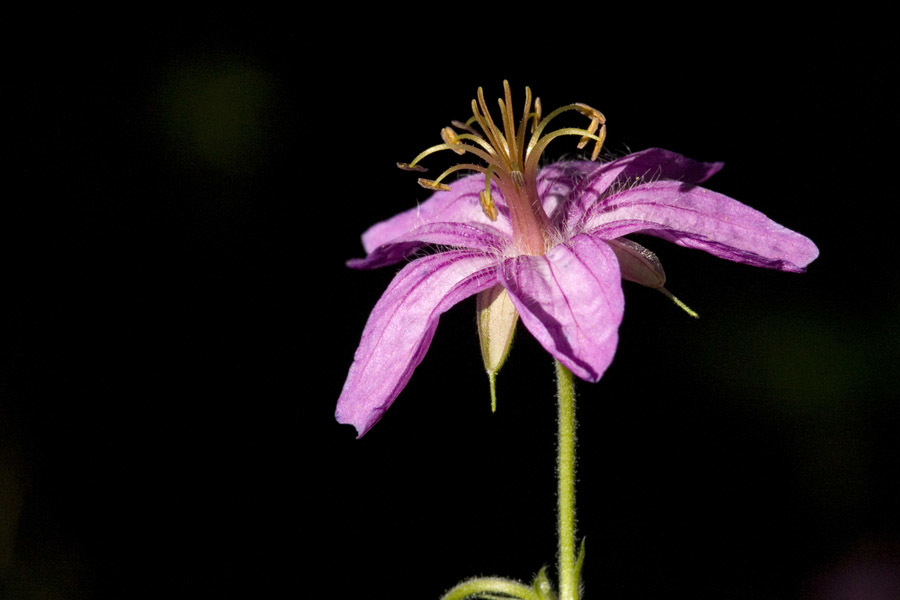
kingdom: Plantae
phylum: Tracheophyta
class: Magnoliopsida
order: Geraniales
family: Geraniaceae
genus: Geranium
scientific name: Geranium caespitosum
